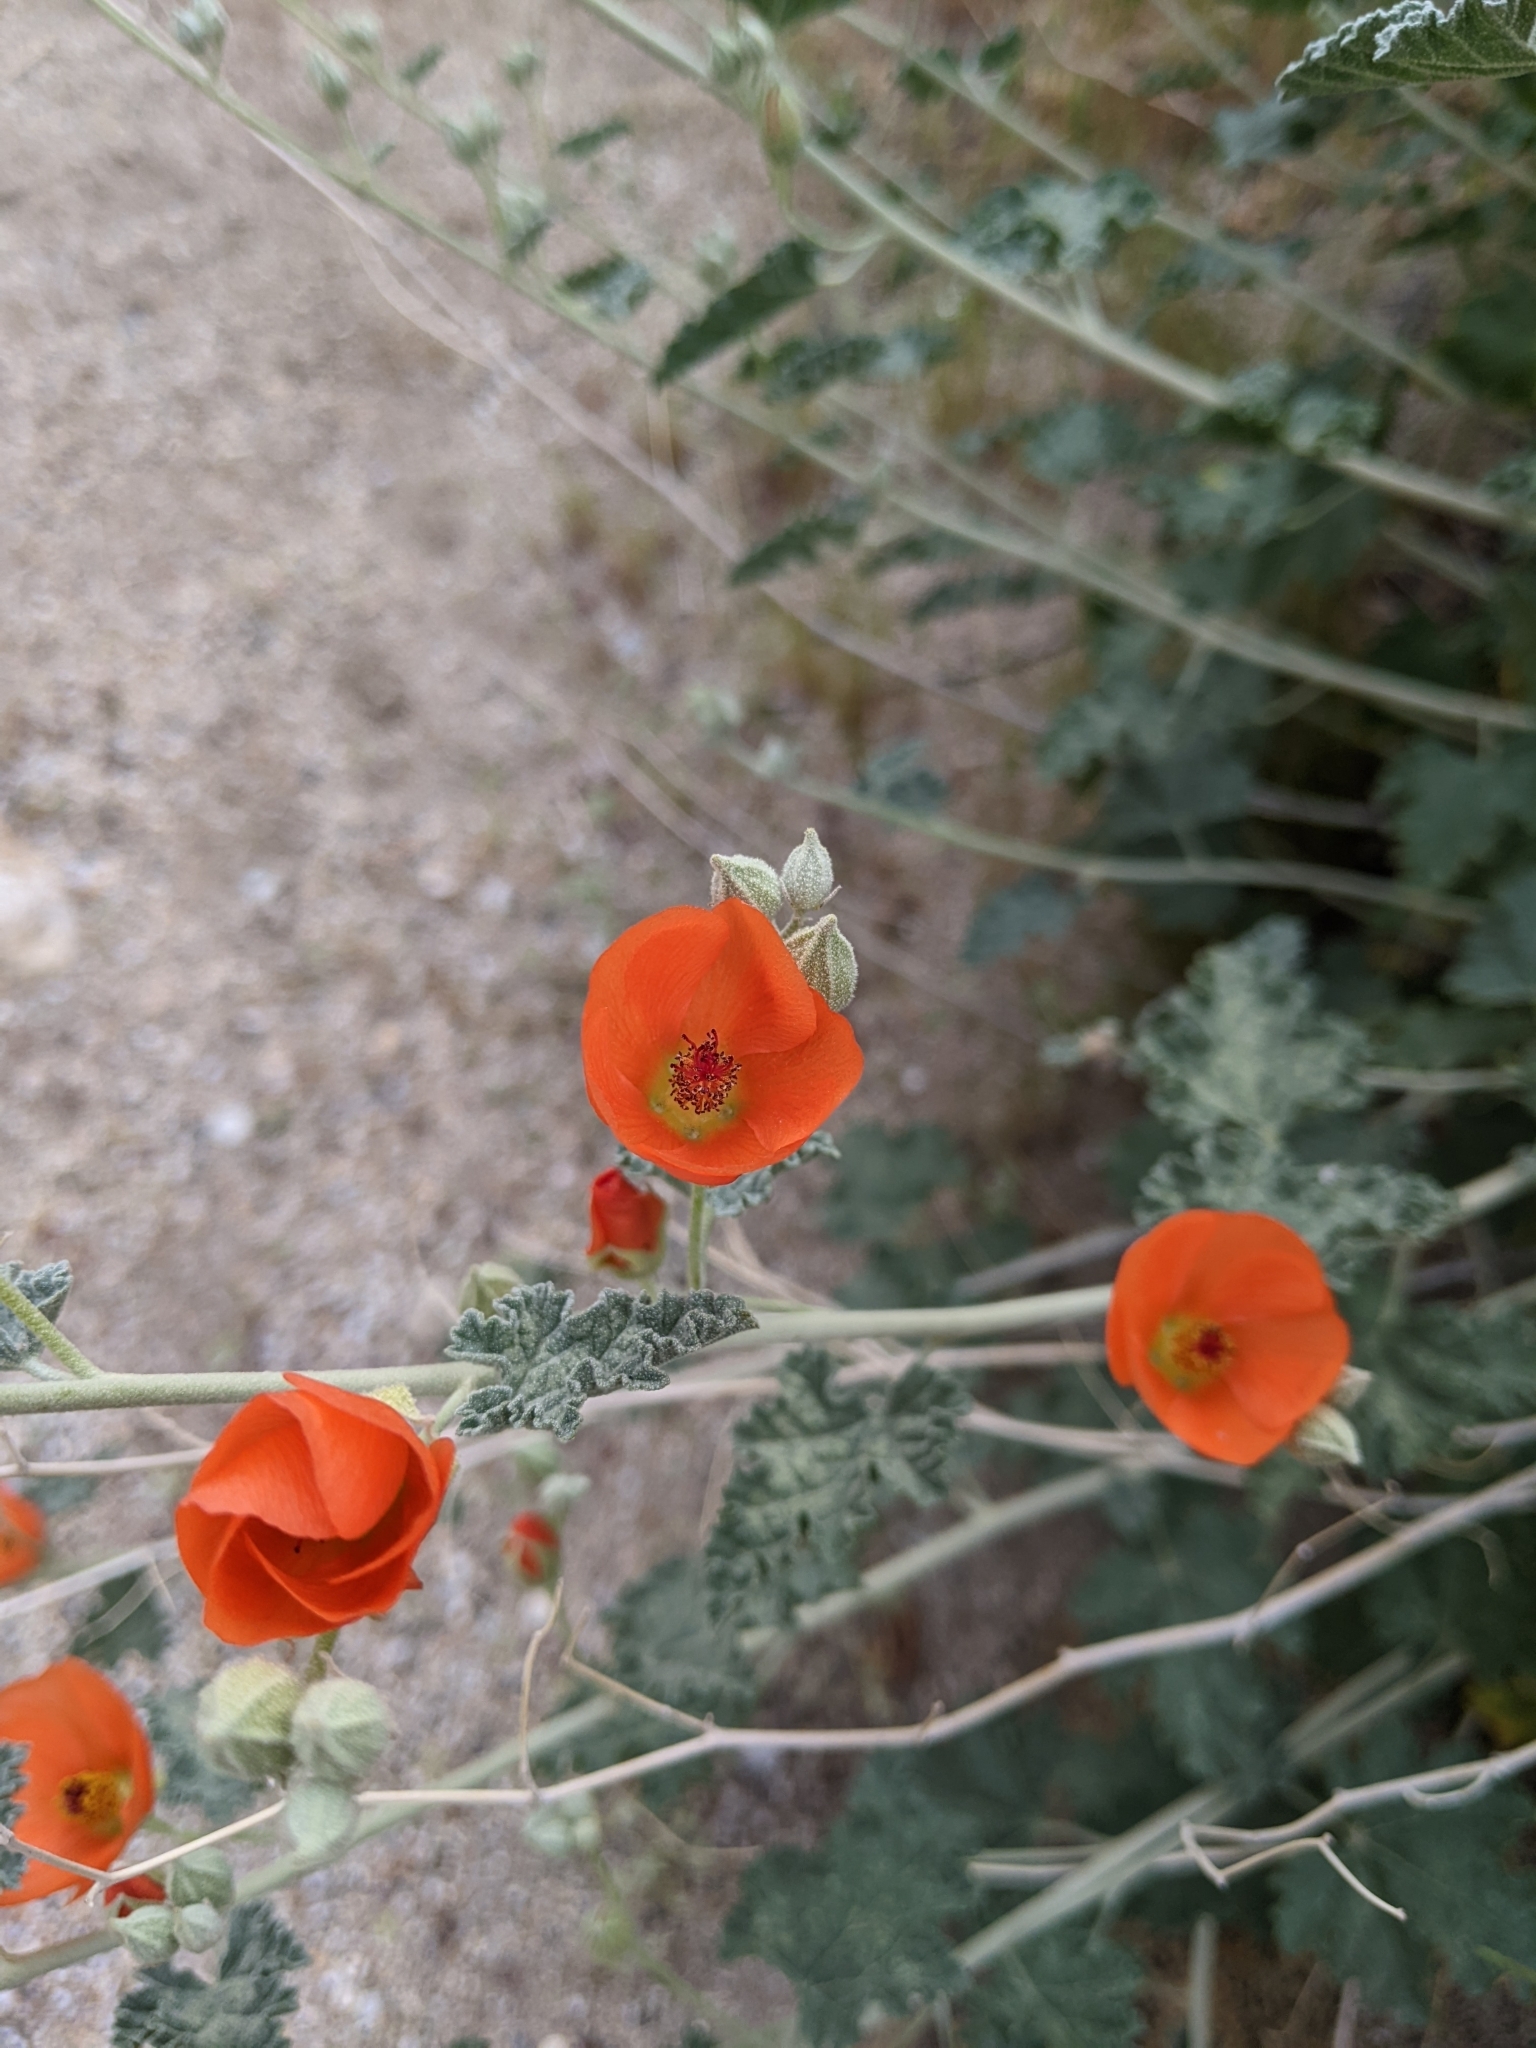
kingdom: Plantae
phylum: Tracheophyta
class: Magnoliopsida
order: Malvales
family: Malvaceae
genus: Sphaeralcea
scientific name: Sphaeralcea ambigua
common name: Apricot globe-mallow
